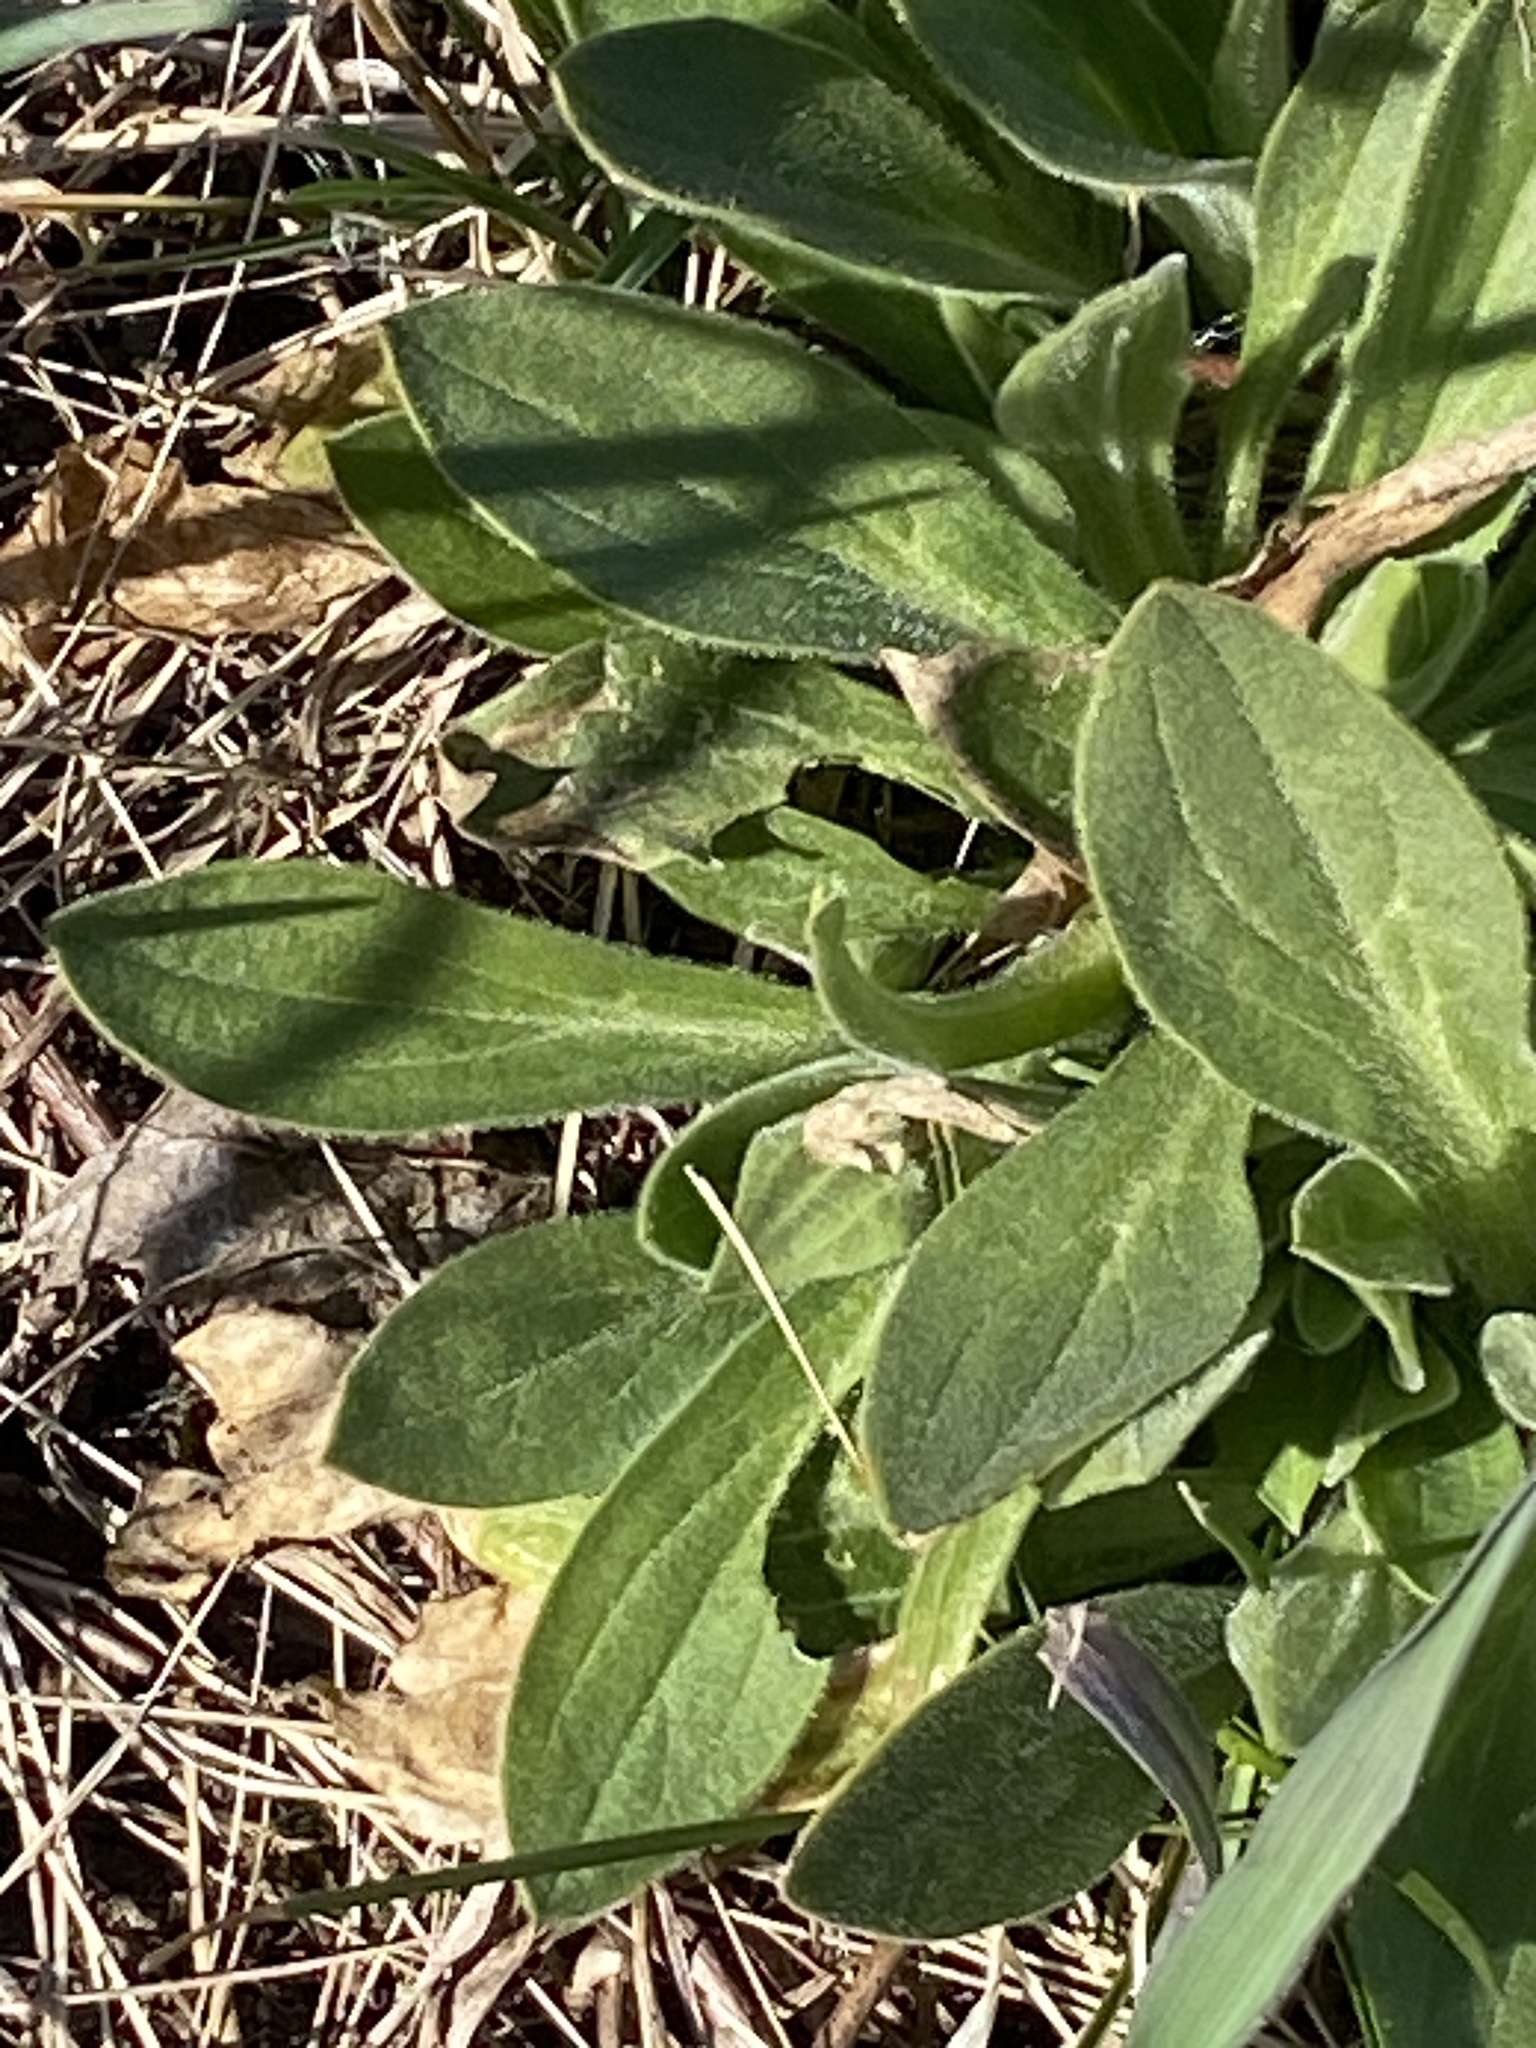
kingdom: Plantae
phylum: Tracheophyta
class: Magnoliopsida
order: Caryophyllales
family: Caryophyllaceae
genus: Silene
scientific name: Silene latifolia
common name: White campion
